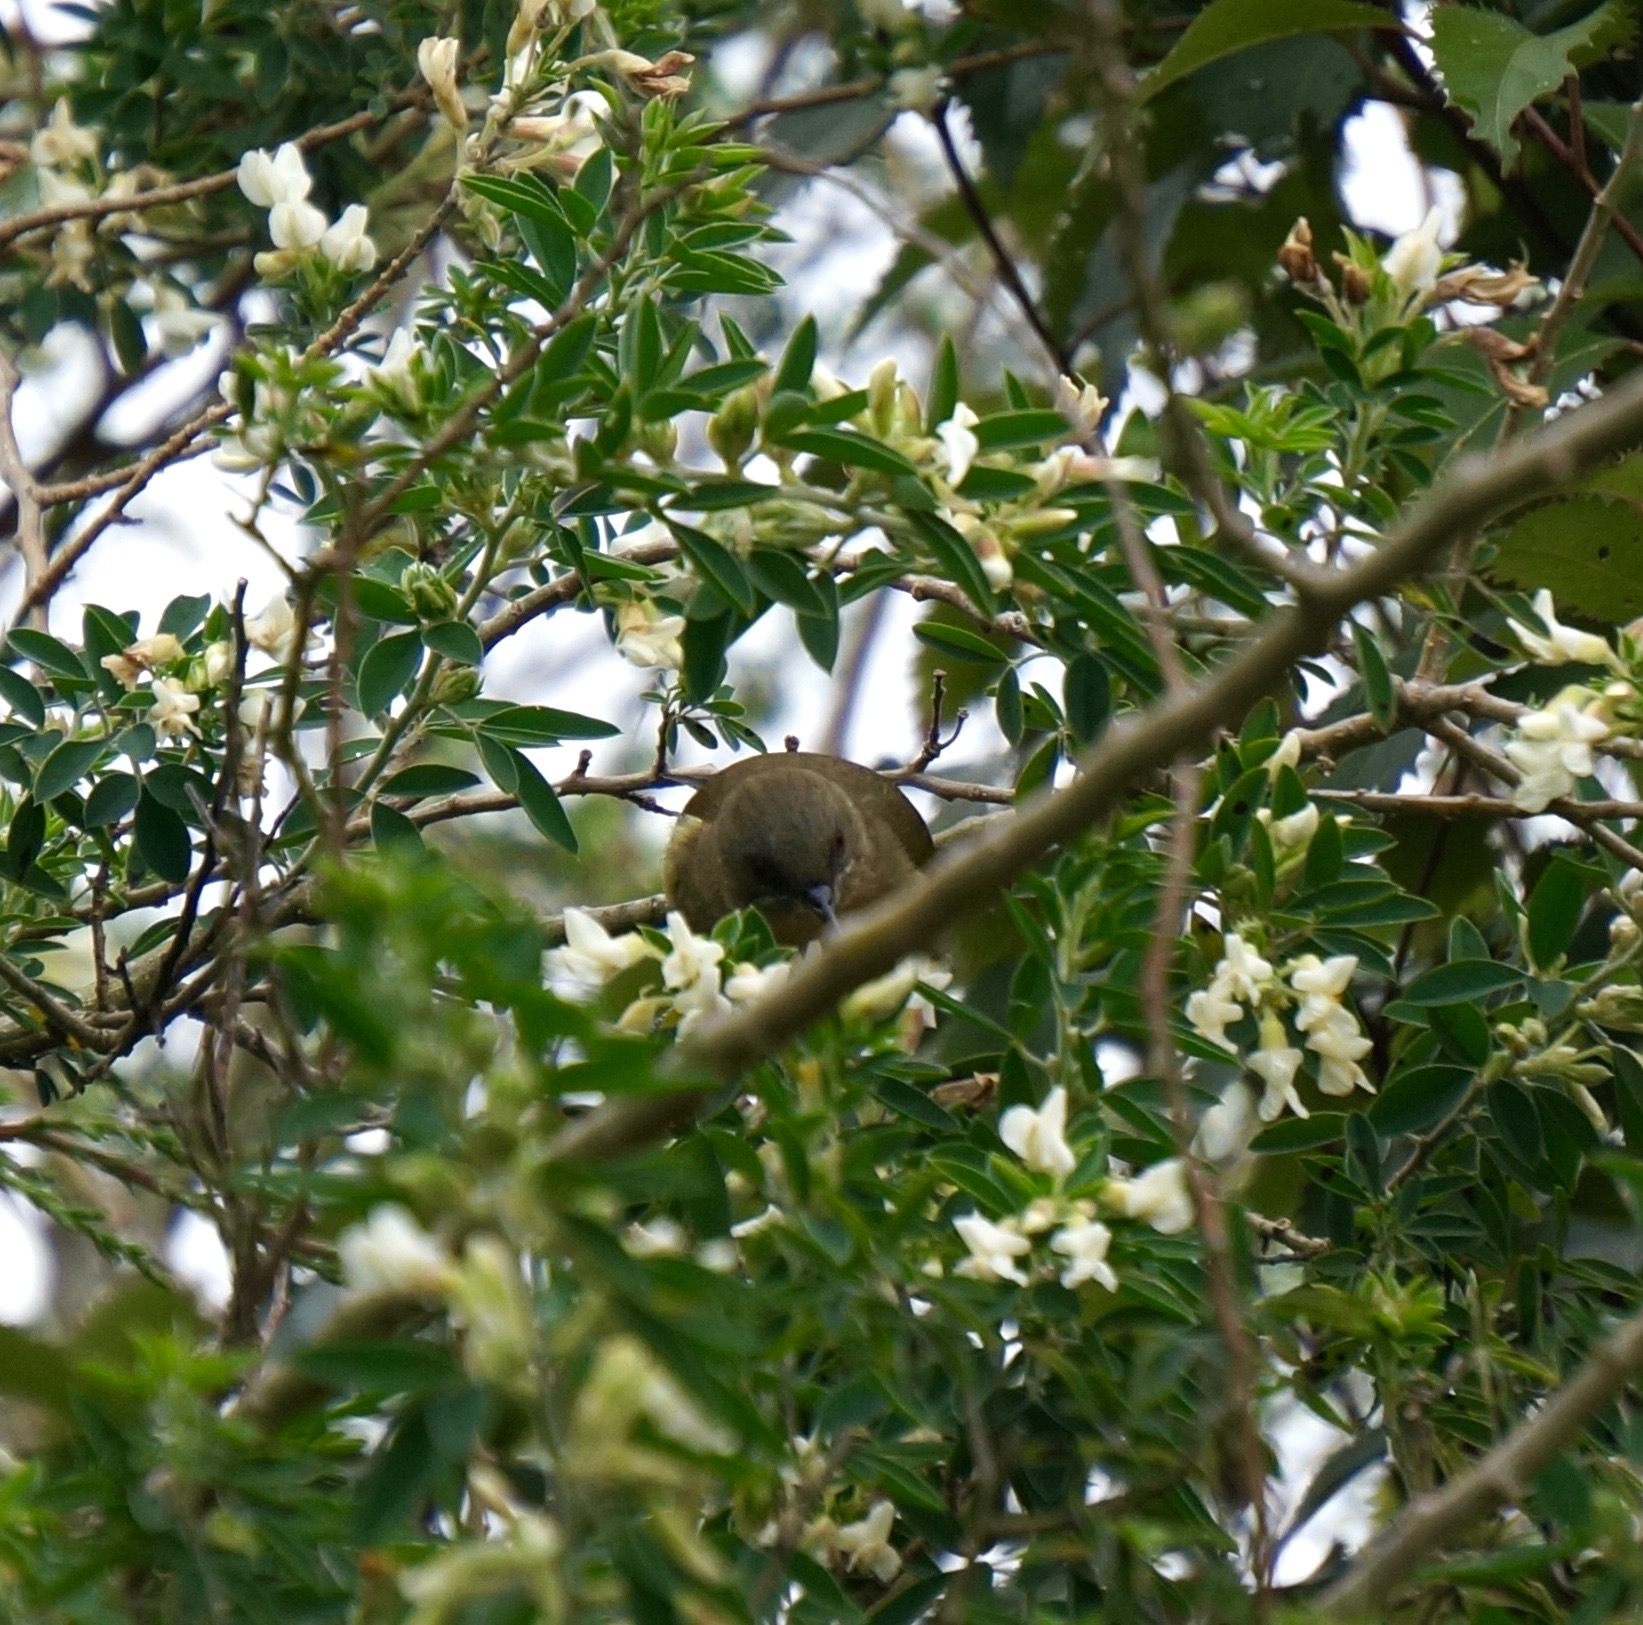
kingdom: Animalia
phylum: Chordata
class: Aves
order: Passeriformes
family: Meliphagidae
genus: Anthornis
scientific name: Anthornis melanura
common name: New zealand bellbird
